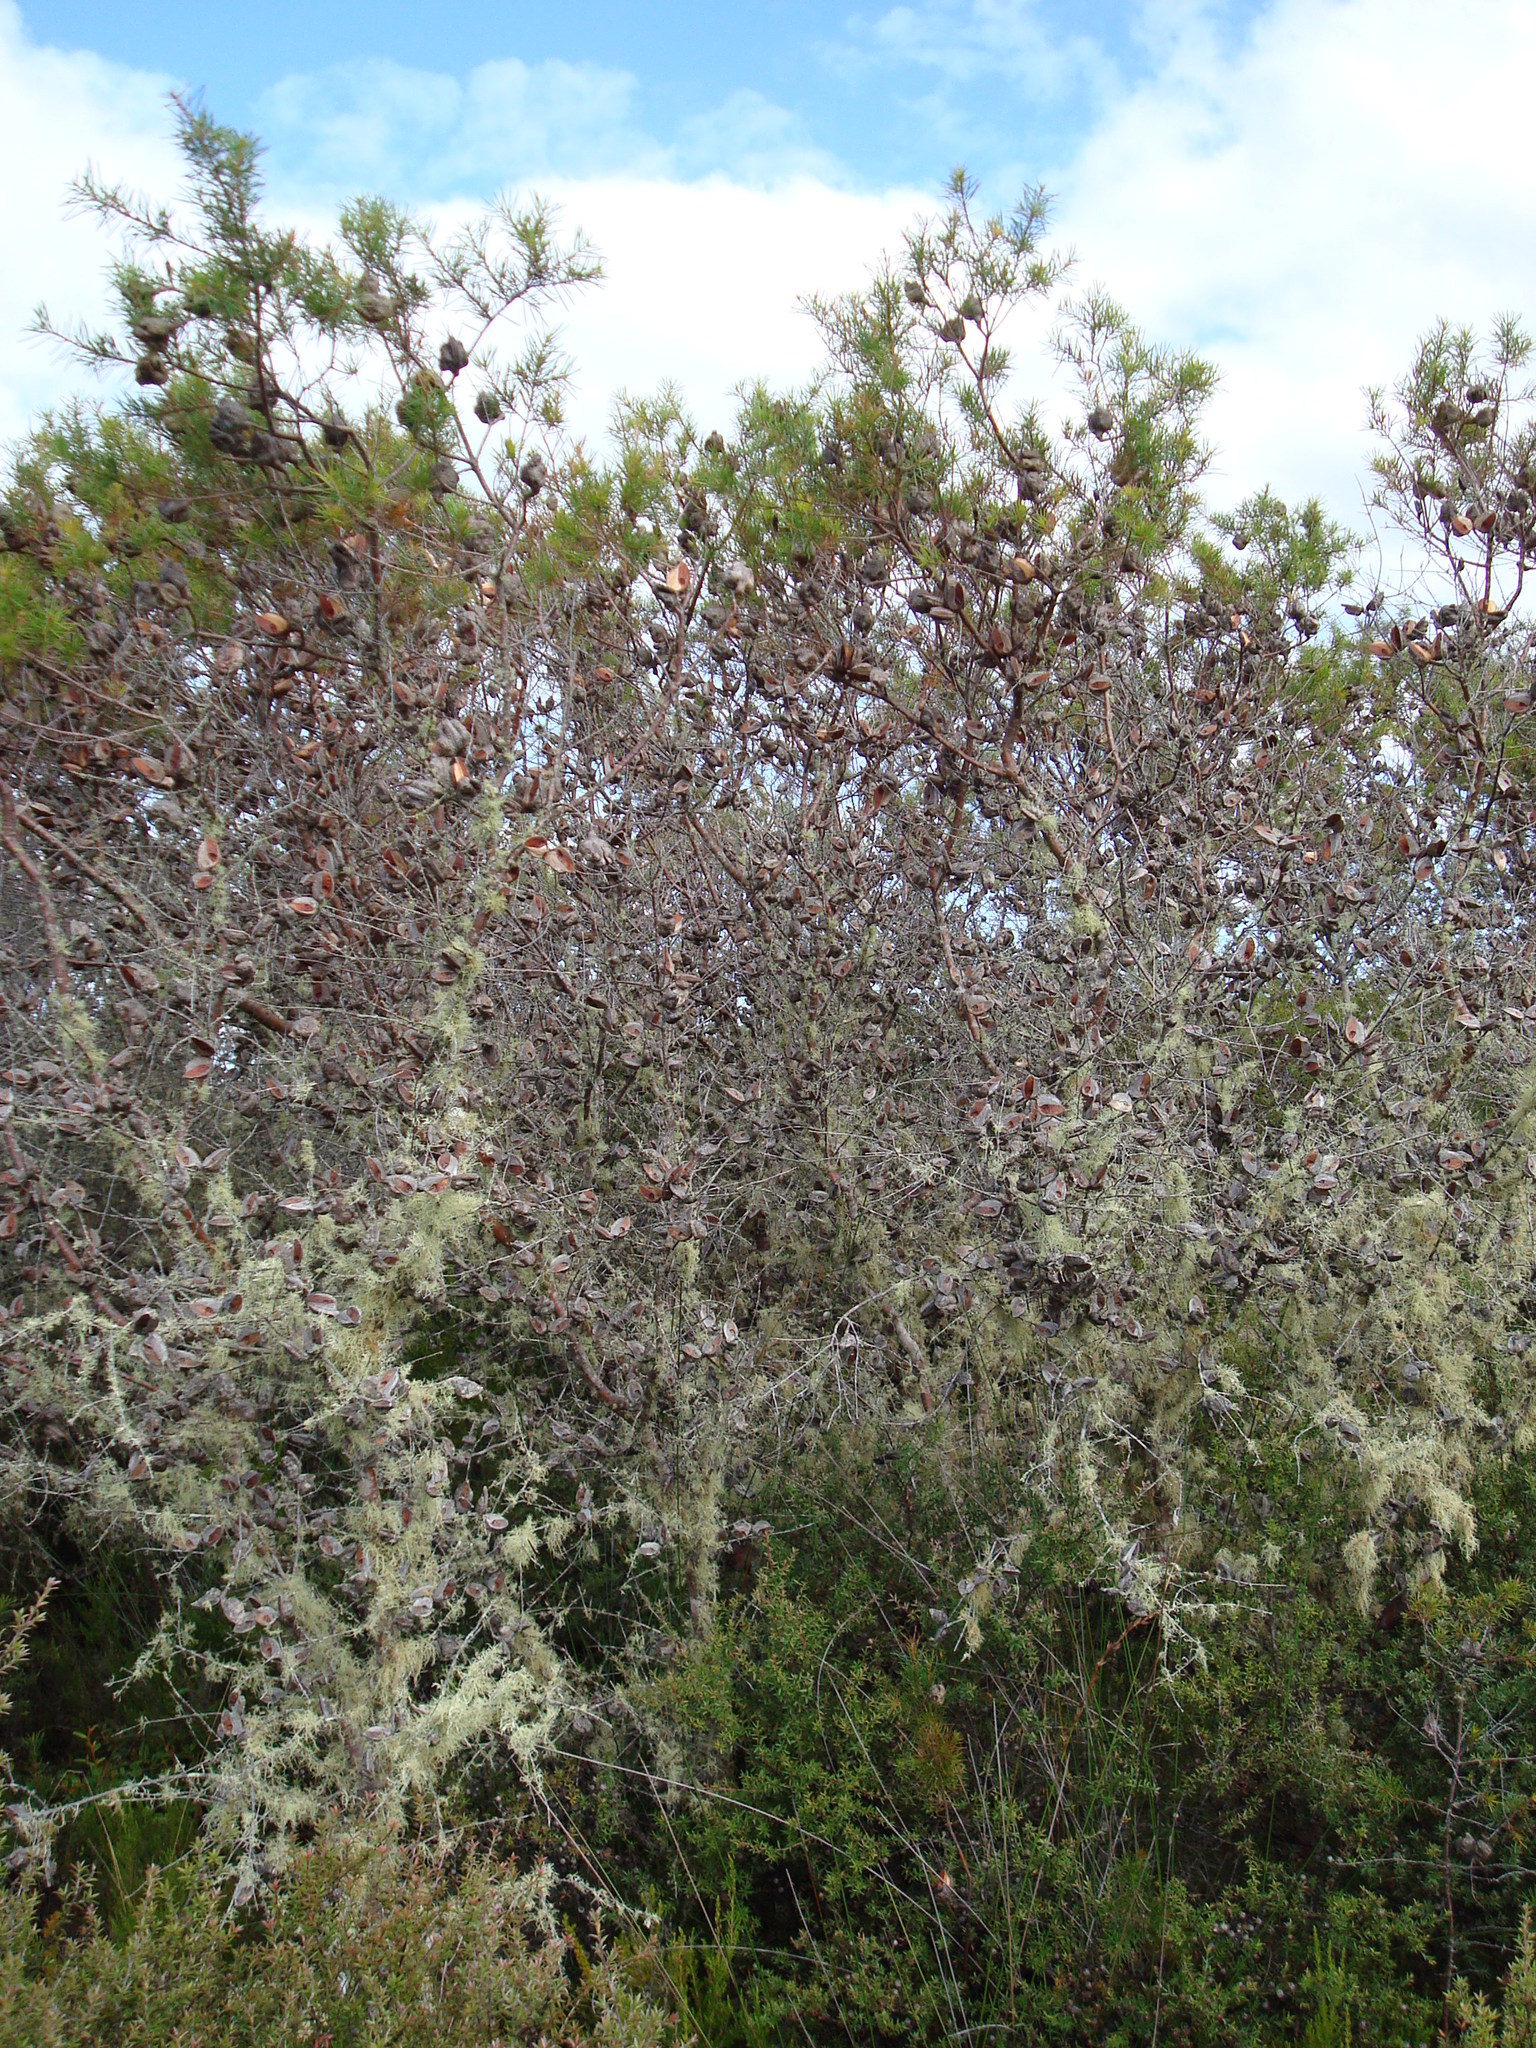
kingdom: Plantae
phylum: Tracheophyta
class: Magnoliopsida
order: Proteales
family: Proteaceae
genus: Hakea
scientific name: Hakea sericea
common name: Needle bush
